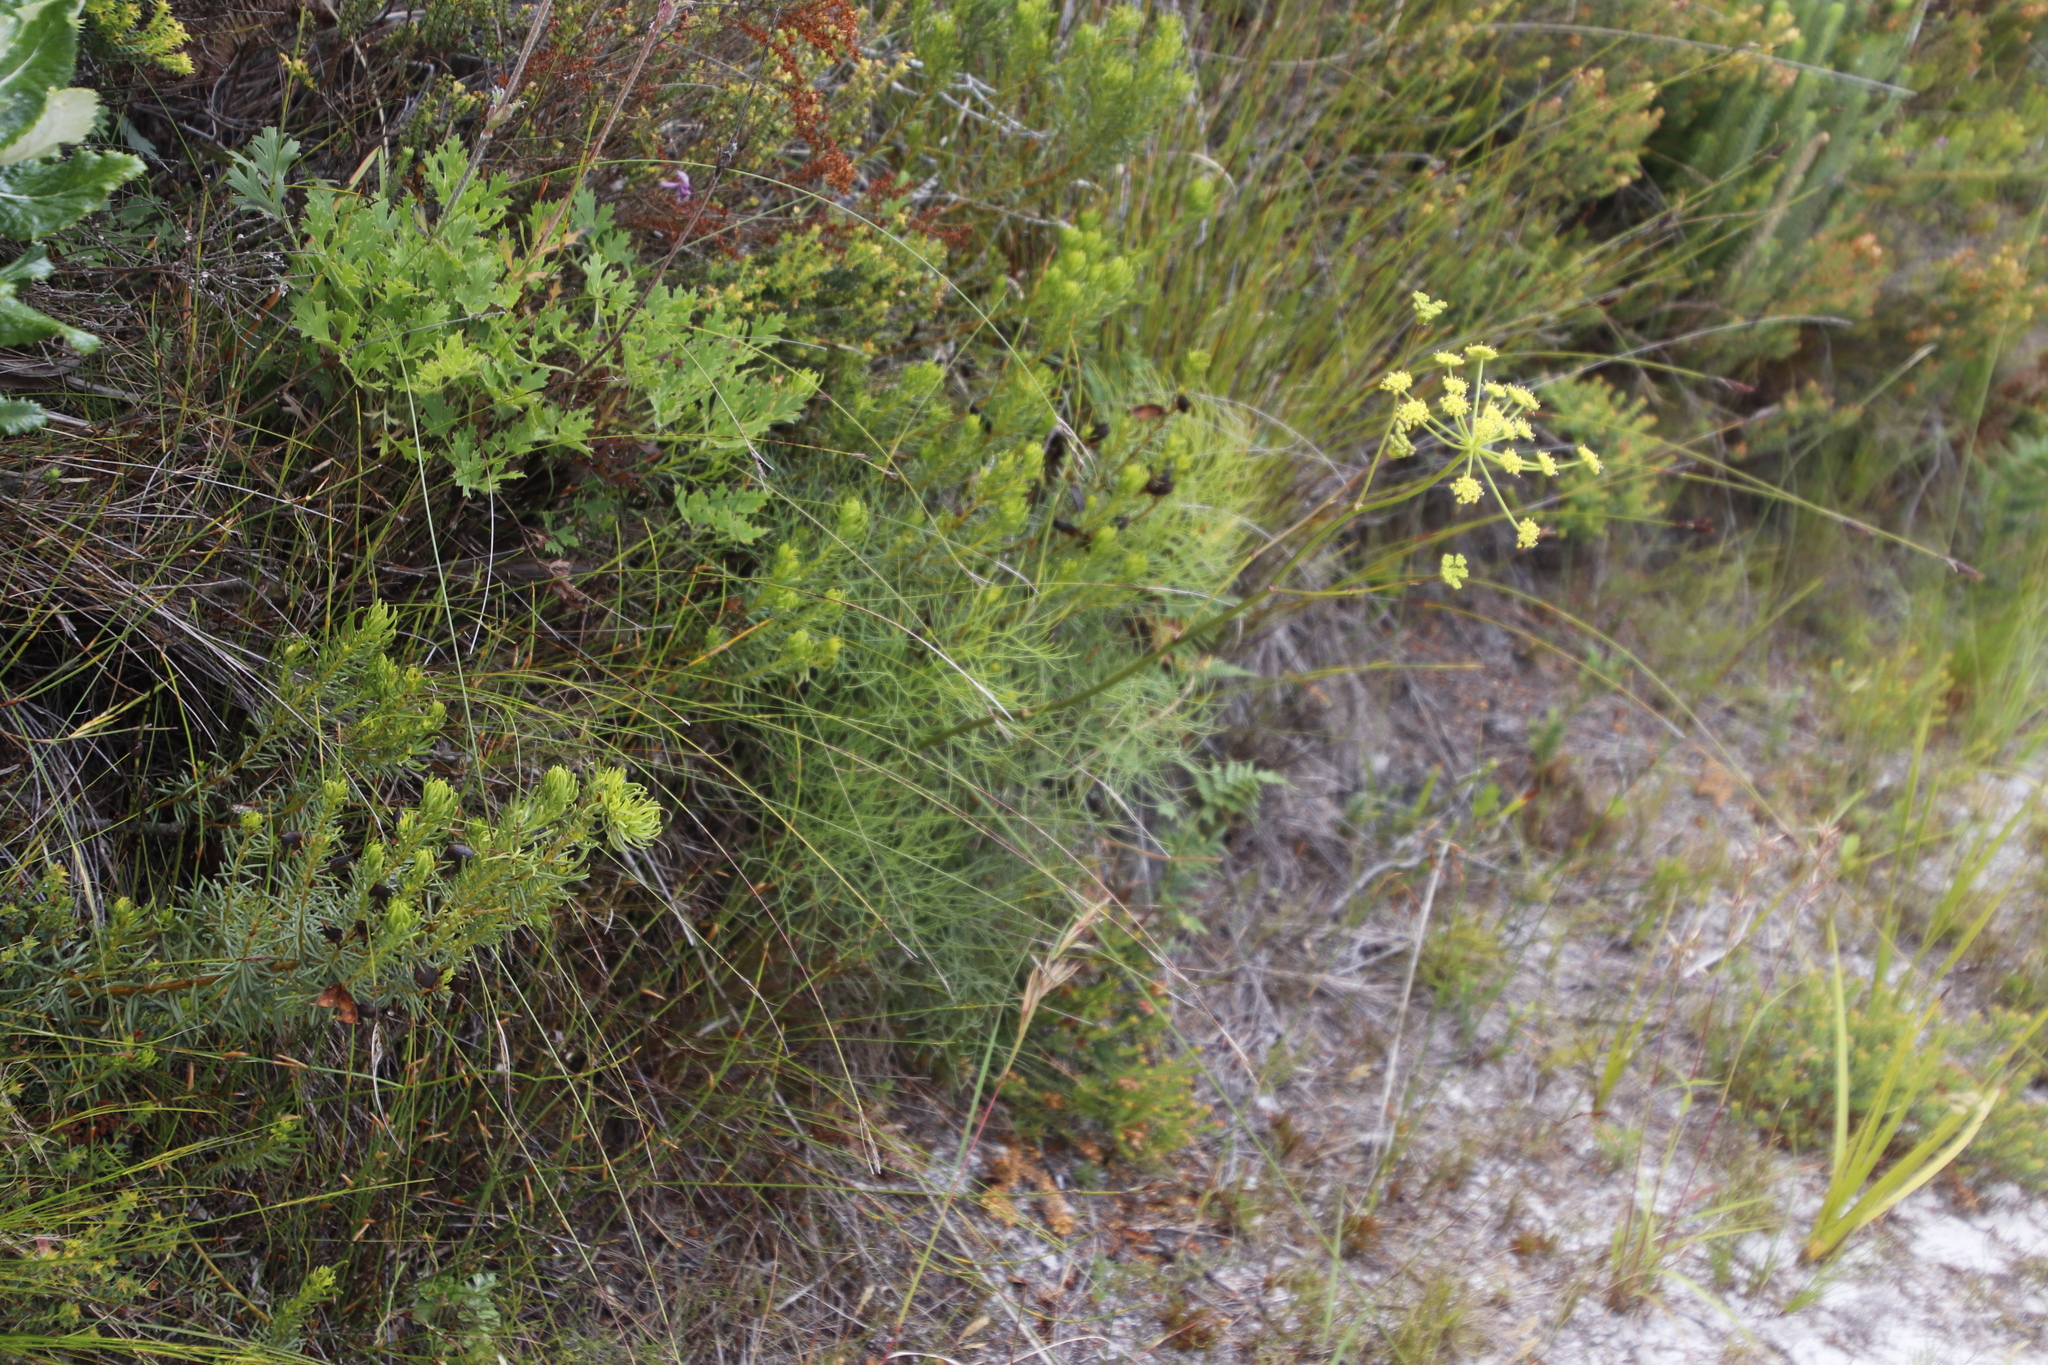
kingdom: Plantae
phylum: Tracheophyta
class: Magnoliopsida
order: Apiales
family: Apiaceae
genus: Nanobubon
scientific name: Nanobubon strictum
